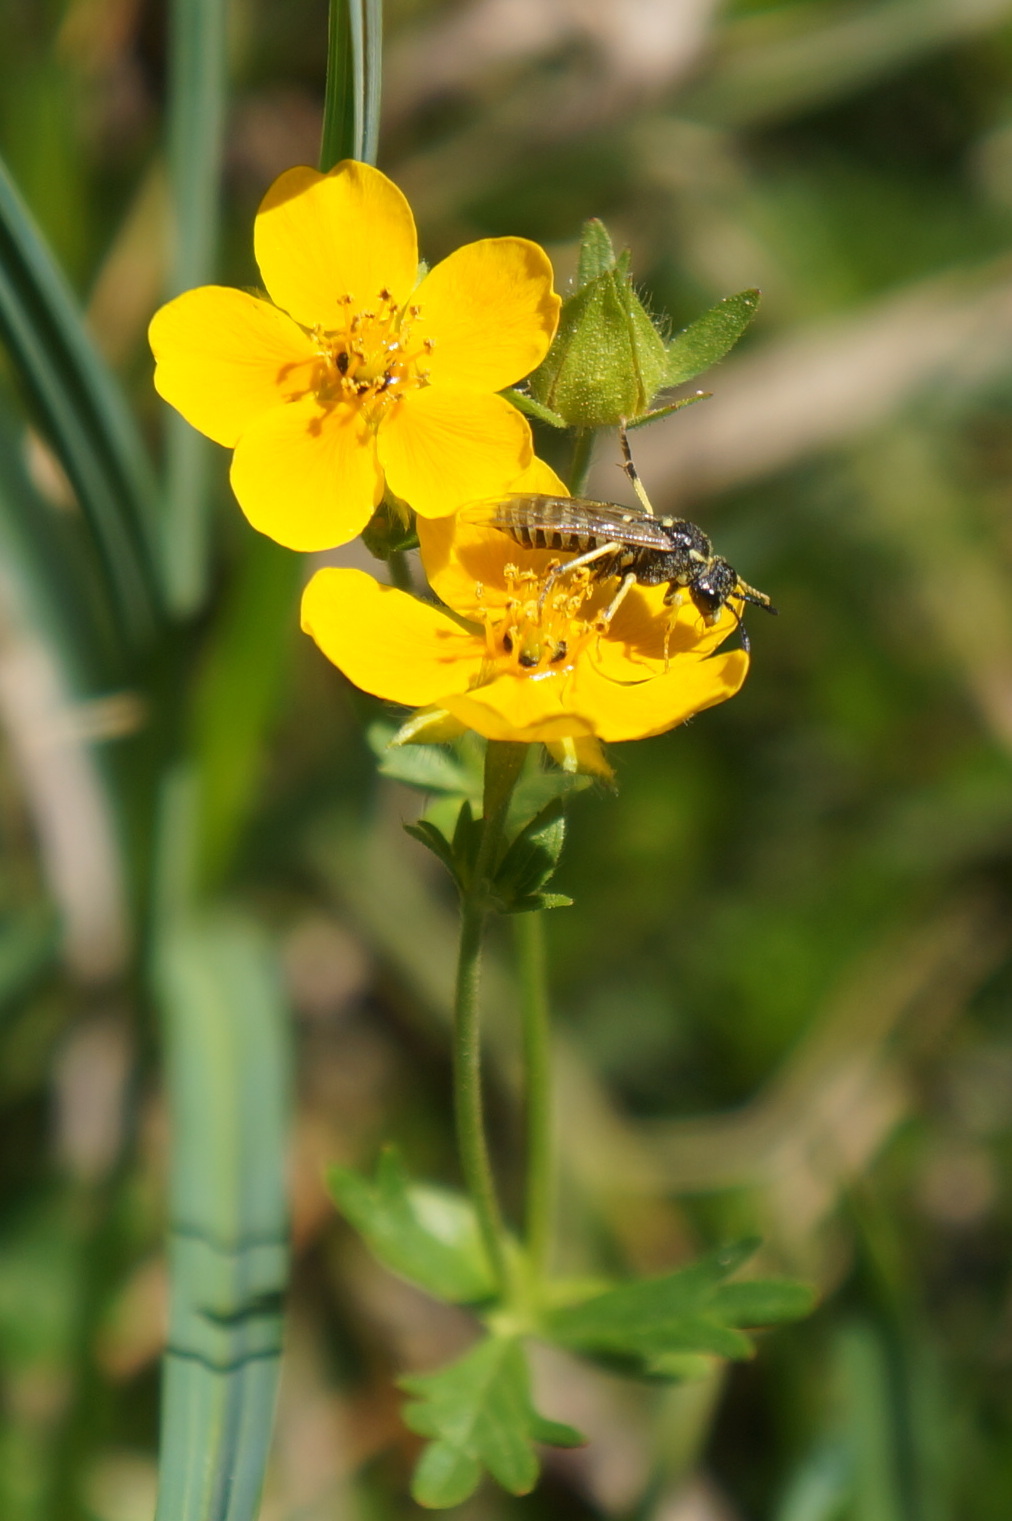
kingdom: Plantae
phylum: Tracheophyta
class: Magnoliopsida
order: Rosales
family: Rosaceae
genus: Potentilla
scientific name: Potentilla flabellifolia
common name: Mount rainier cinquefoil
